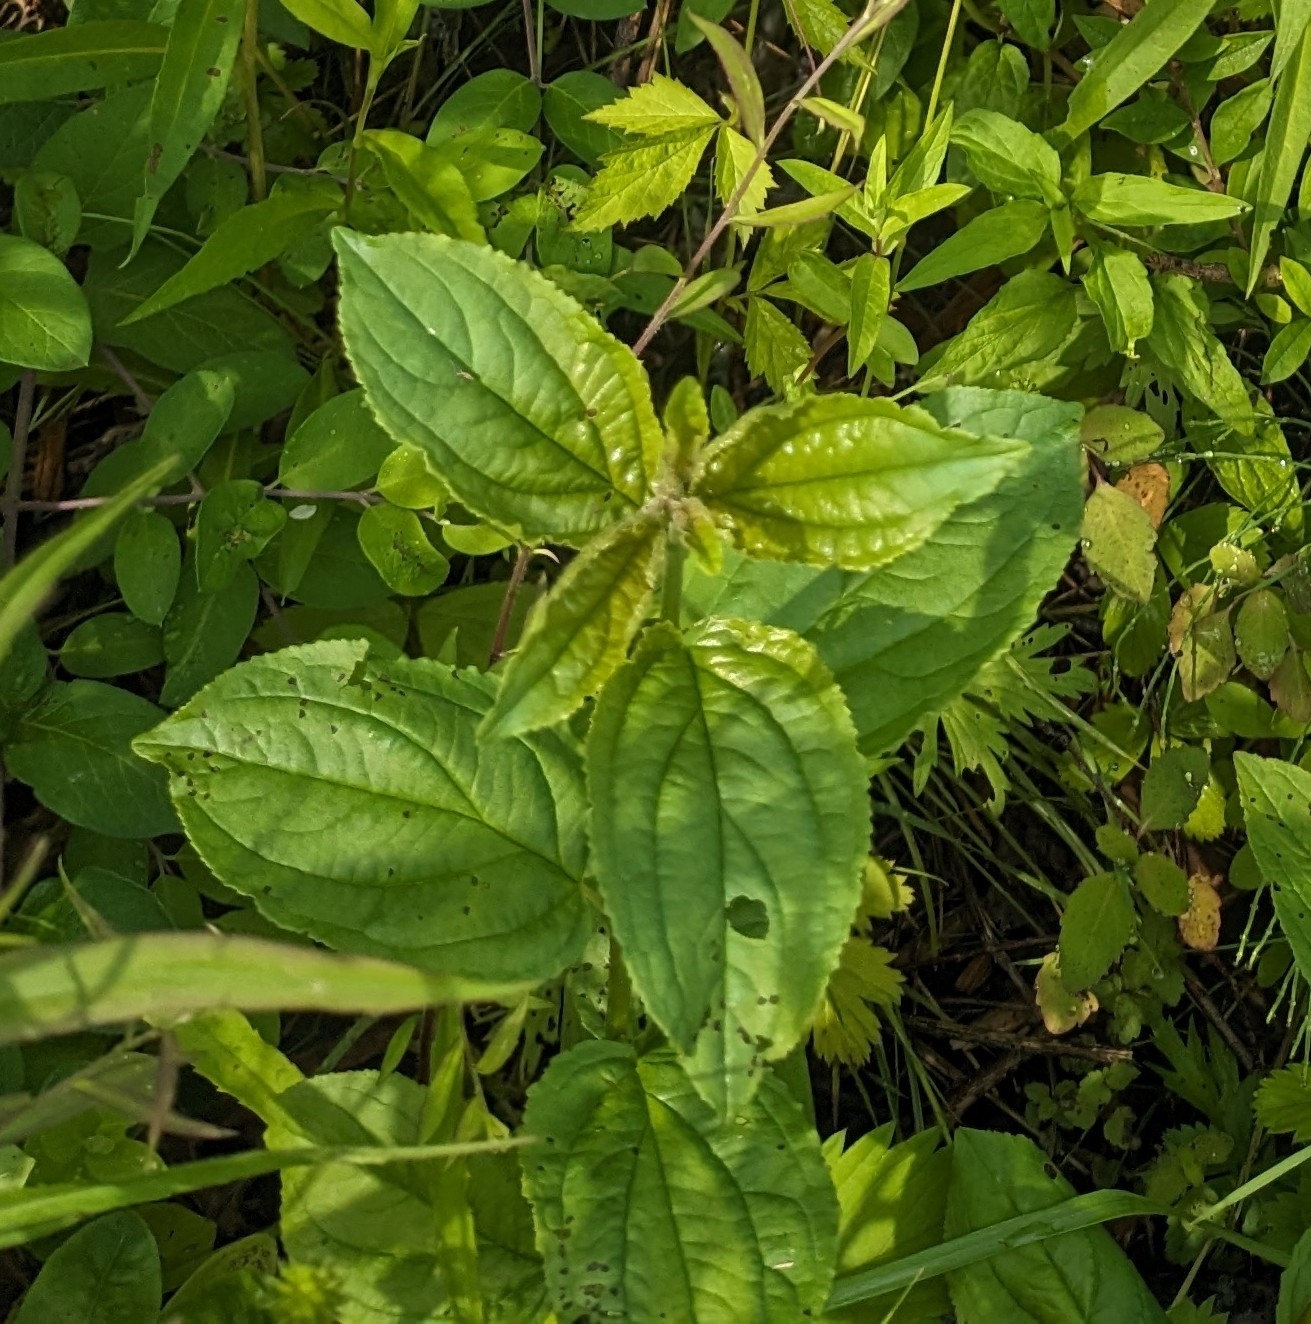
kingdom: Plantae
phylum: Tracheophyta
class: Magnoliopsida
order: Rosales
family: Rhamnaceae
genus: Rhamnus
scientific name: Rhamnus cathartica
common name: Common buckthorn
